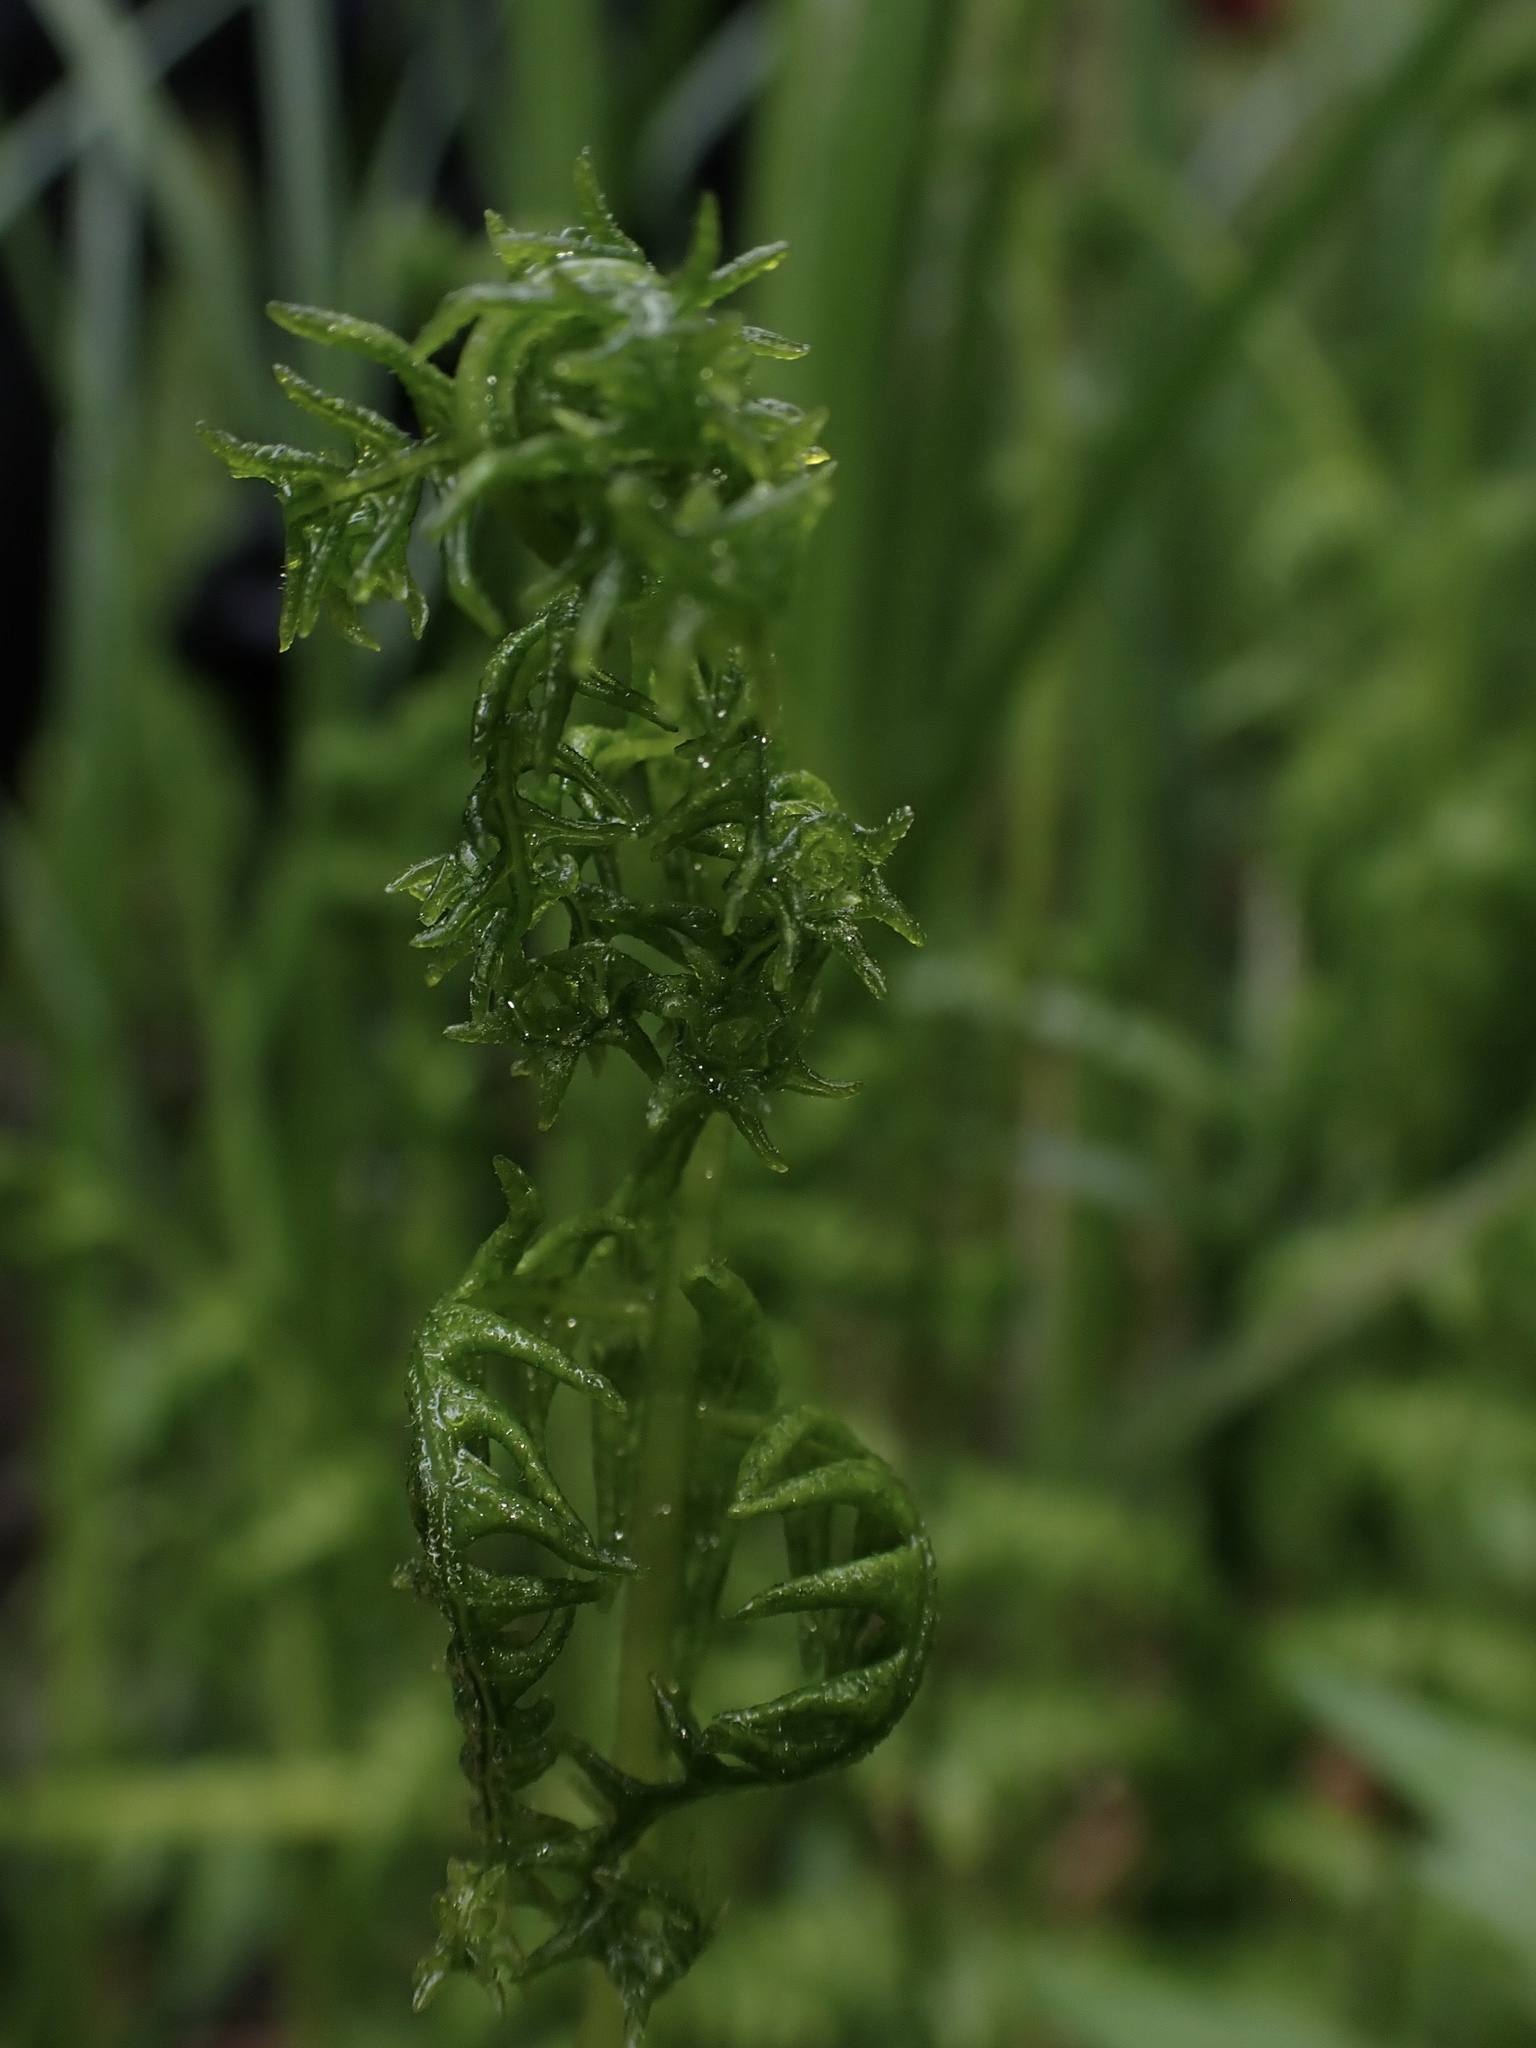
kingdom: Plantae
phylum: Tracheophyta
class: Polypodiopsida
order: Polypodiales
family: Thelypteridaceae
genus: Thelypteris
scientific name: Thelypteris palustris
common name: Marsh fern
